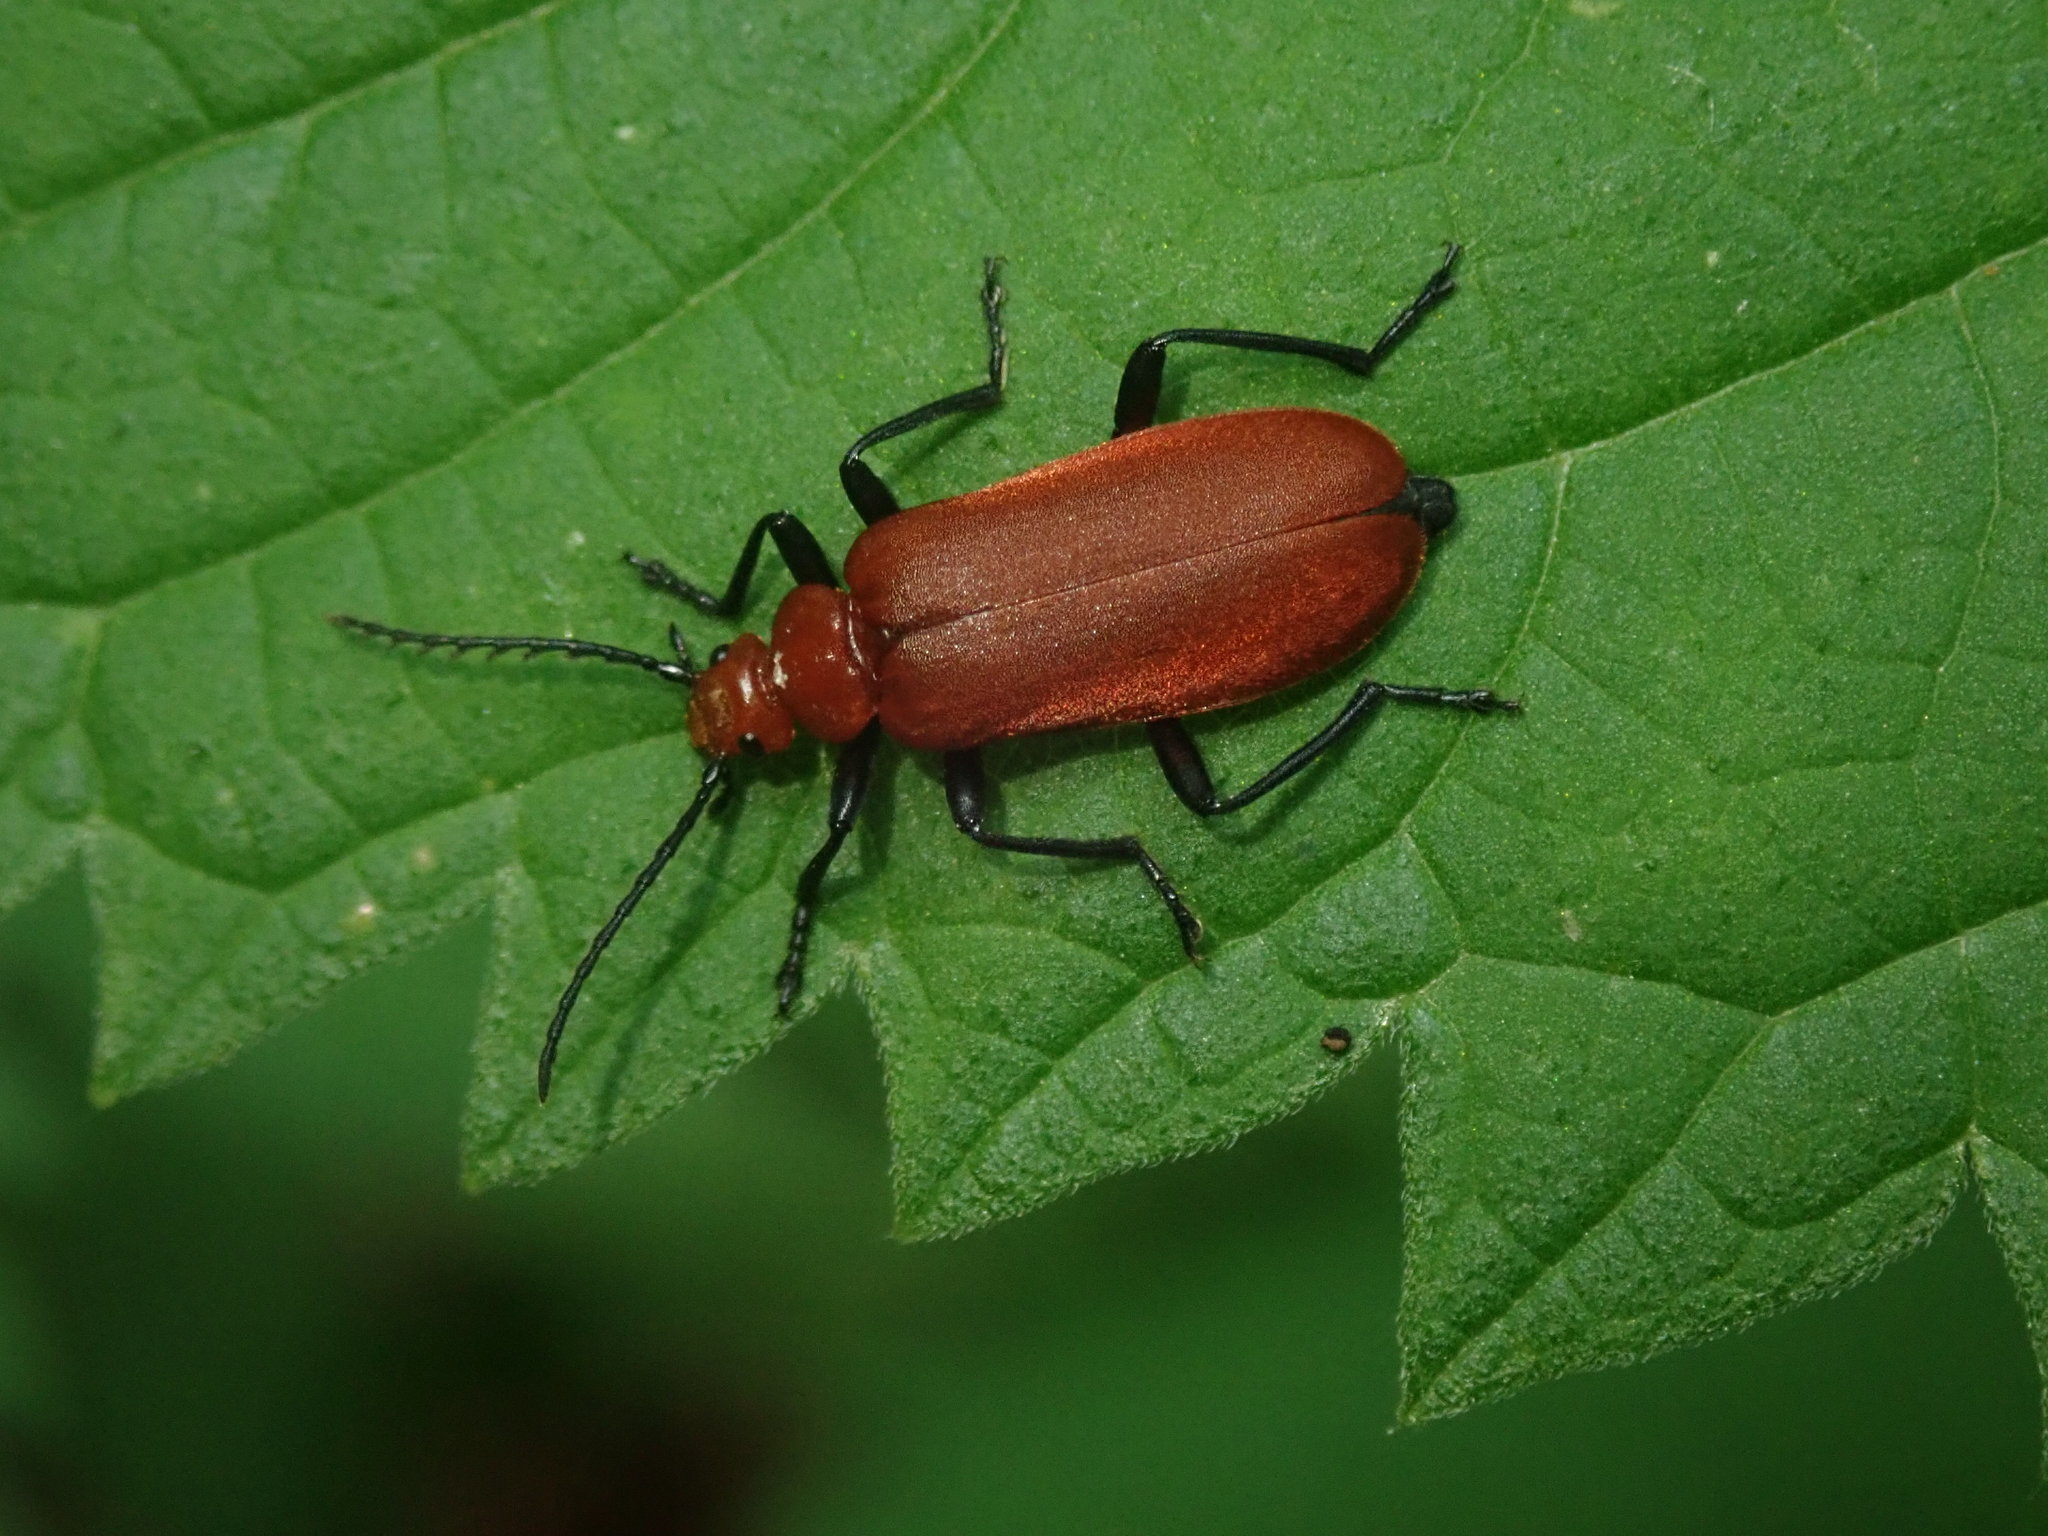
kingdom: Animalia
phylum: Arthropoda
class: Insecta
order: Coleoptera
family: Pyrochroidae
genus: Pyrochroa
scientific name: Pyrochroa serraticornis
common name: Red-headed cardinal beetle
